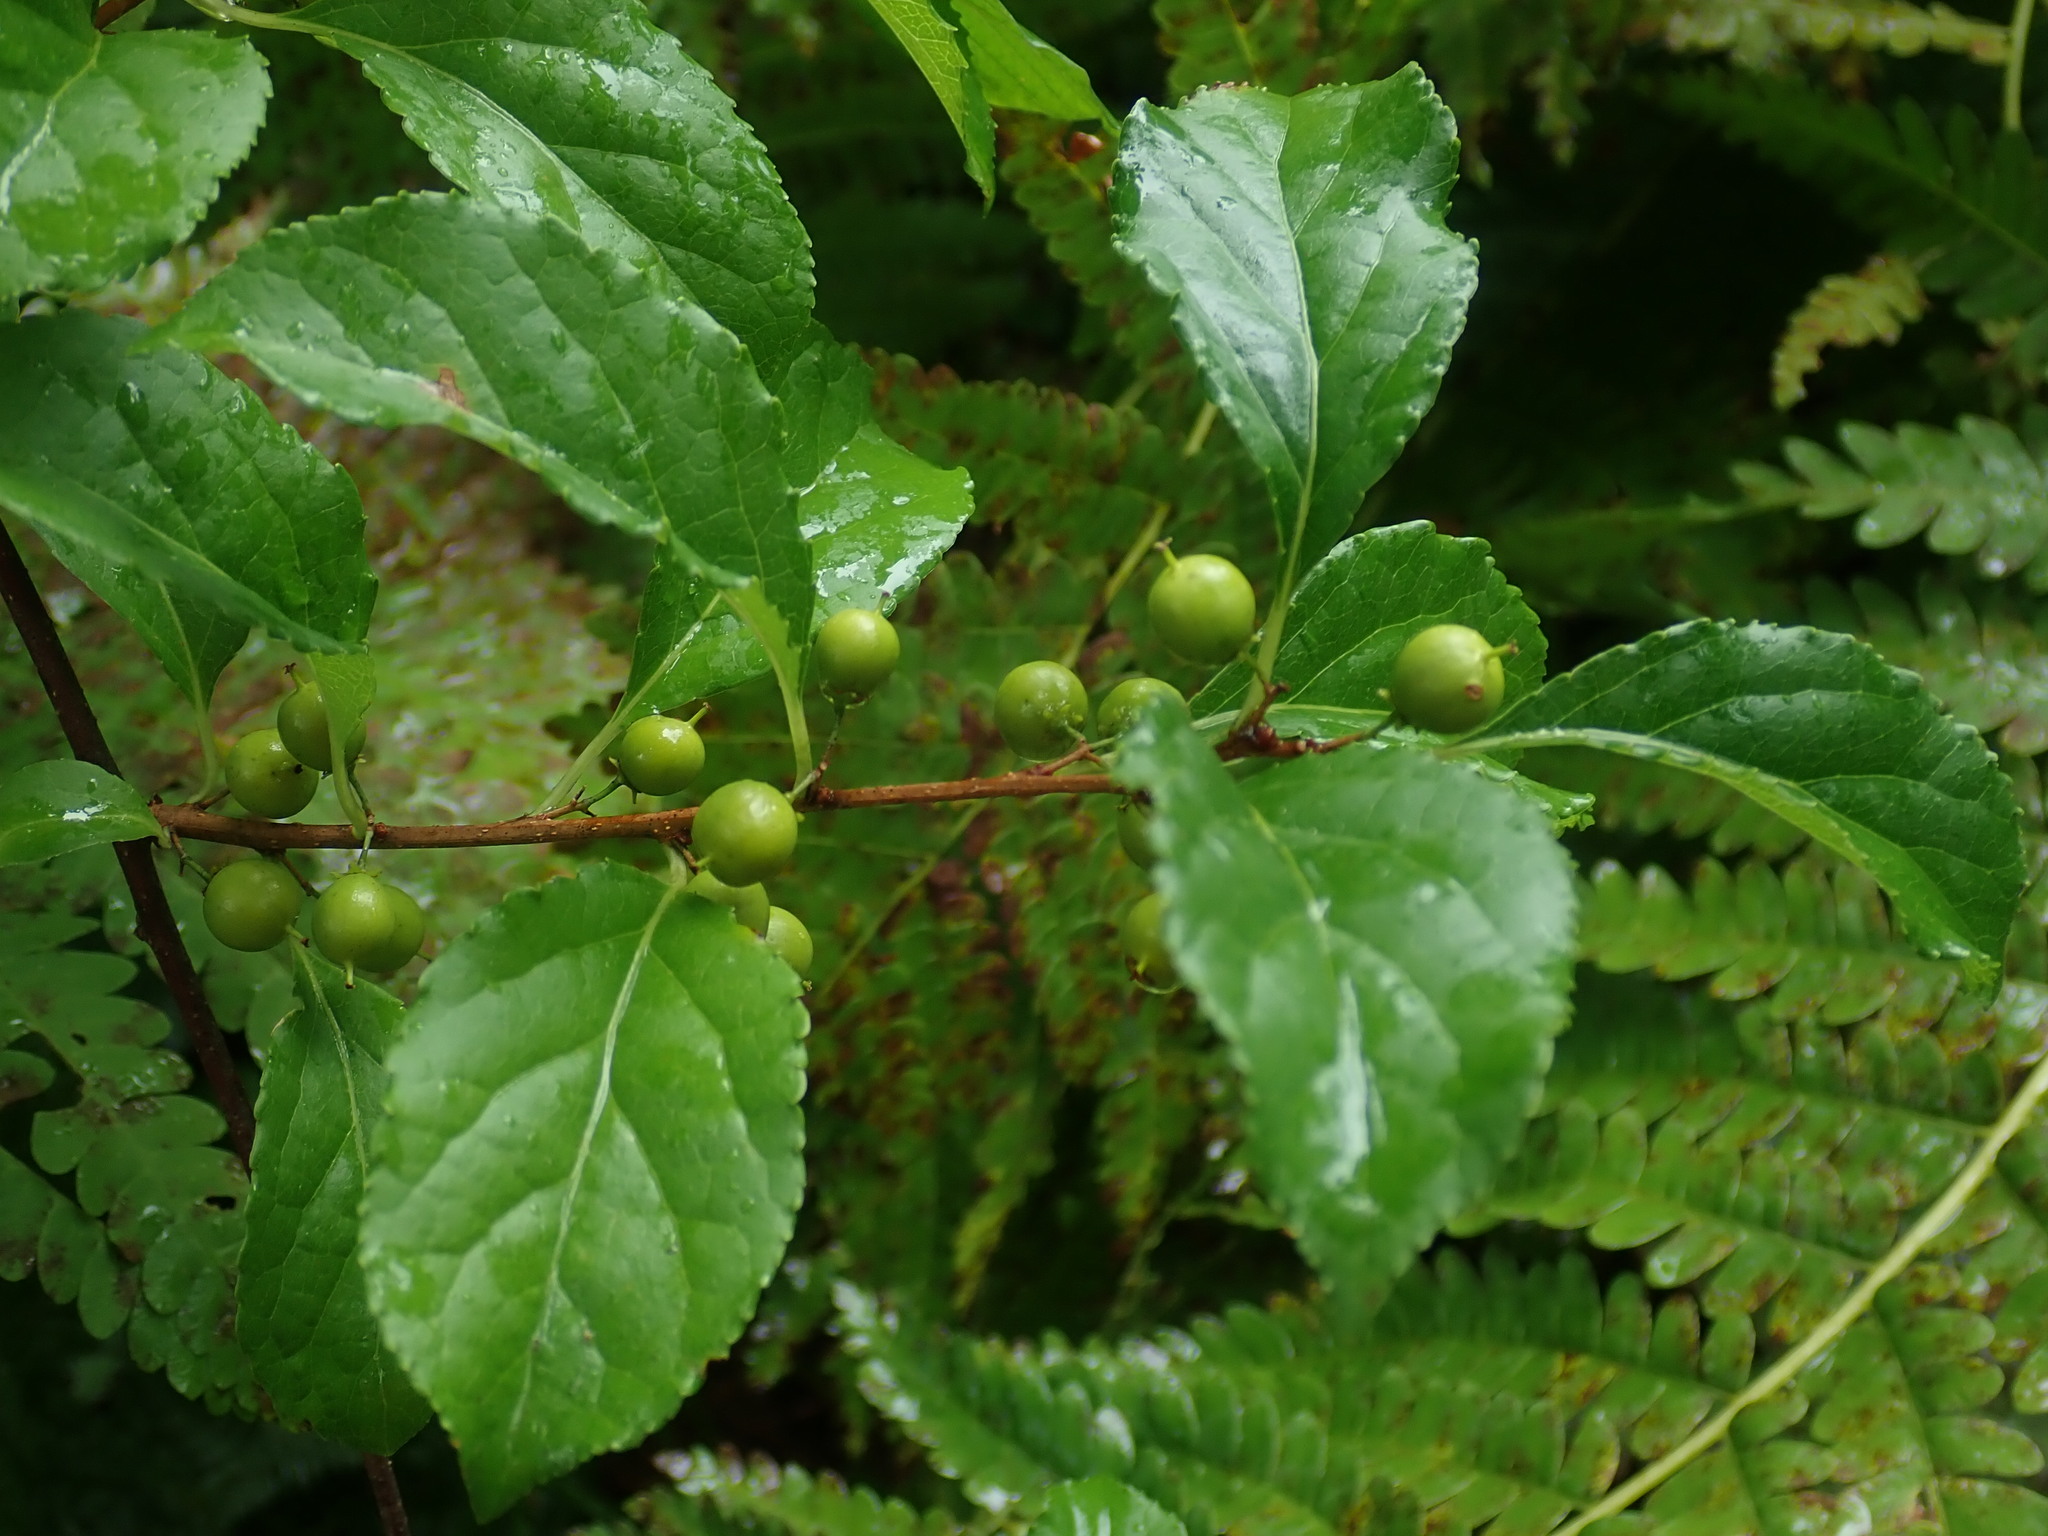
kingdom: Plantae
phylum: Tracheophyta
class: Magnoliopsida
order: Celastrales
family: Celastraceae
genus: Celastrus
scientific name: Celastrus orbiculatus
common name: Oriental bittersweet
